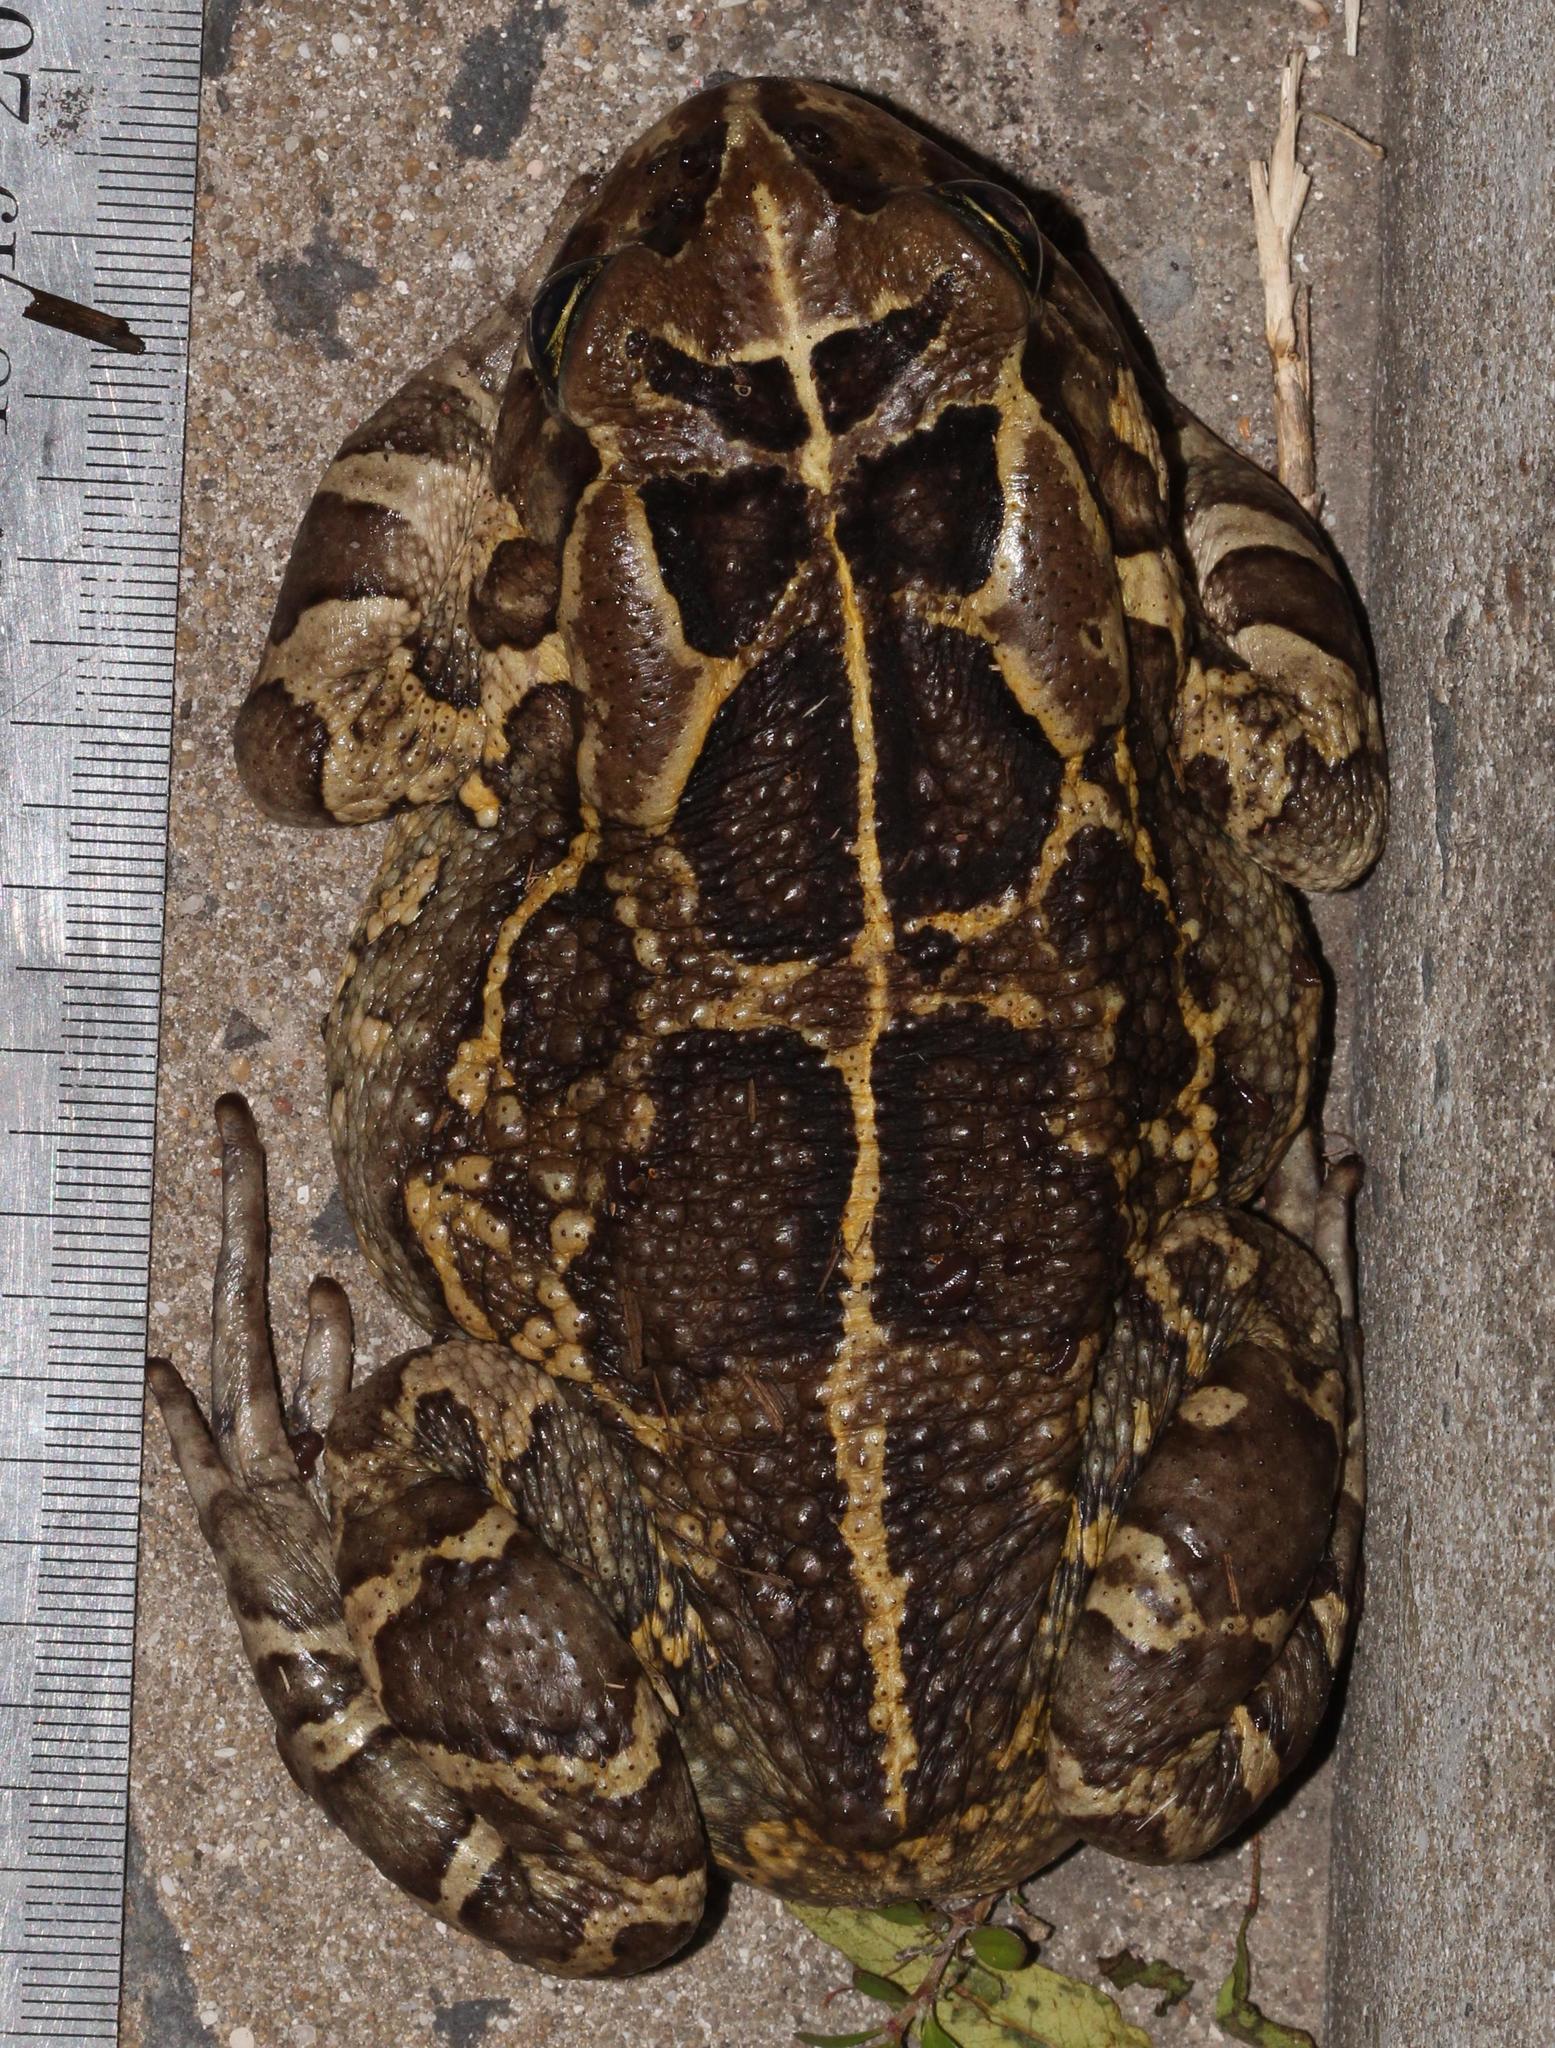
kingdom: Animalia
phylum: Chordata
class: Amphibia
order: Anura
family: Bufonidae
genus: Sclerophrys
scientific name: Sclerophrys pantherina
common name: Panther toad
